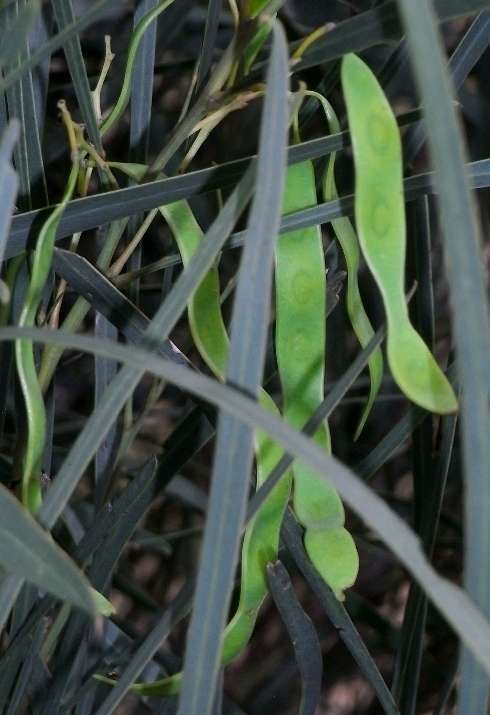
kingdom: Plantae
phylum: Tracheophyta
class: Magnoliopsida
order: Fabales
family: Fabaceae
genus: Acacia
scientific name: Acacia provincialis
